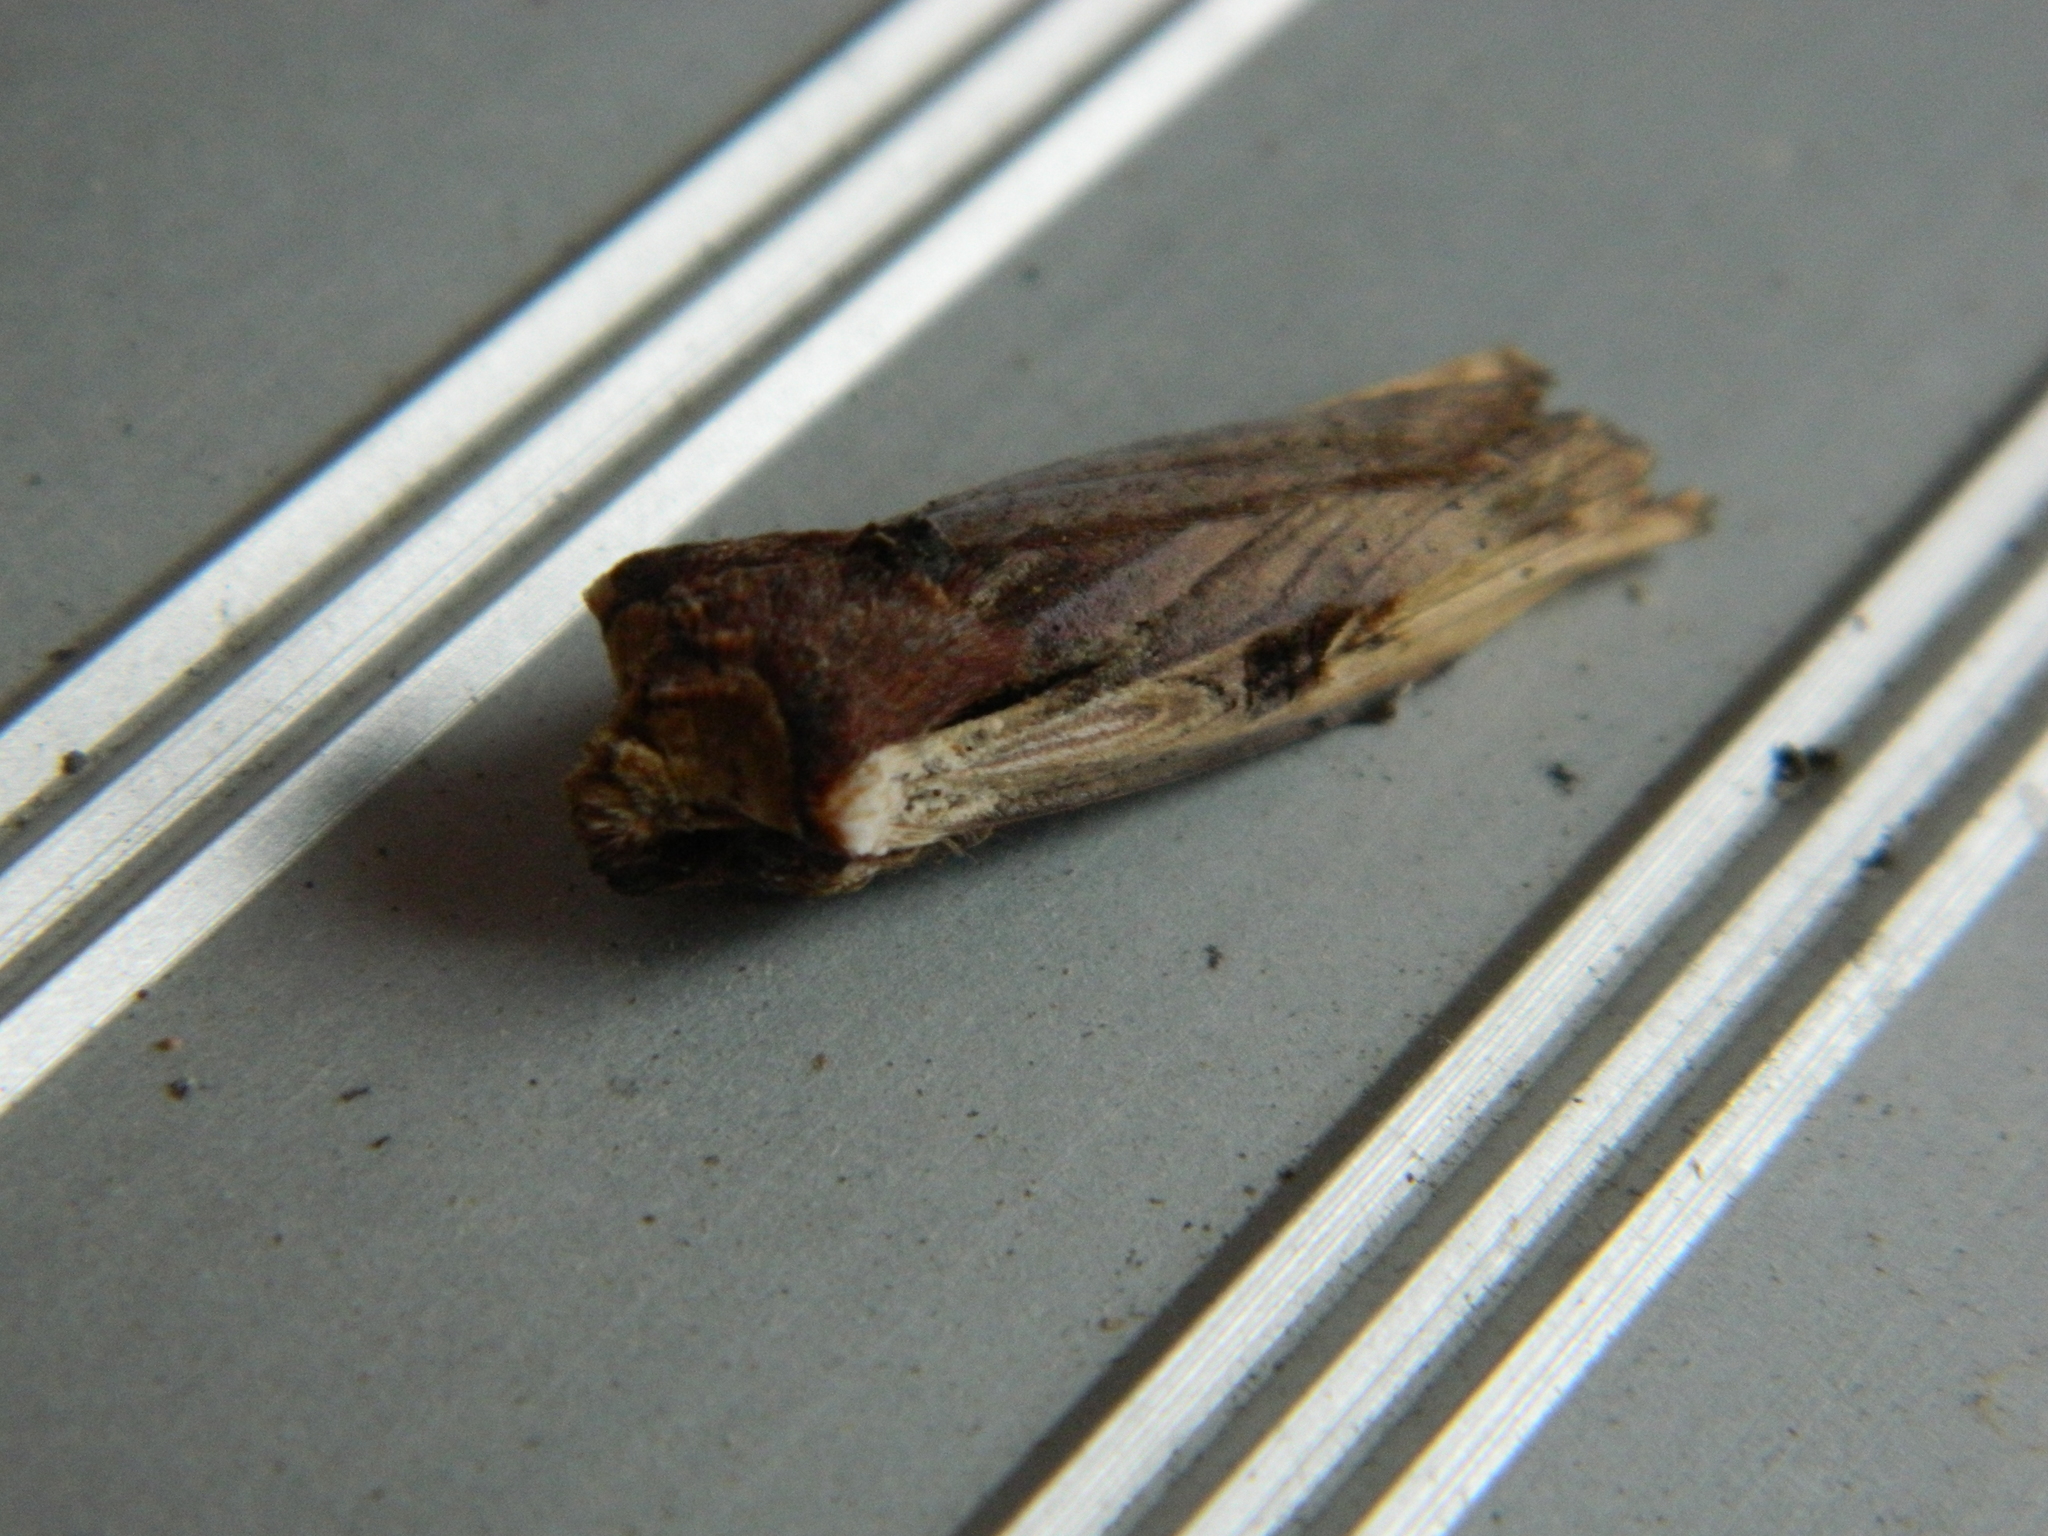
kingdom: Animalia
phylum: Arthropoda
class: Insecta
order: Lepidoptera
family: Noctuidae
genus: Xylena
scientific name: Xylena curvimacula
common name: Dot-and-dash swordgrass moth
